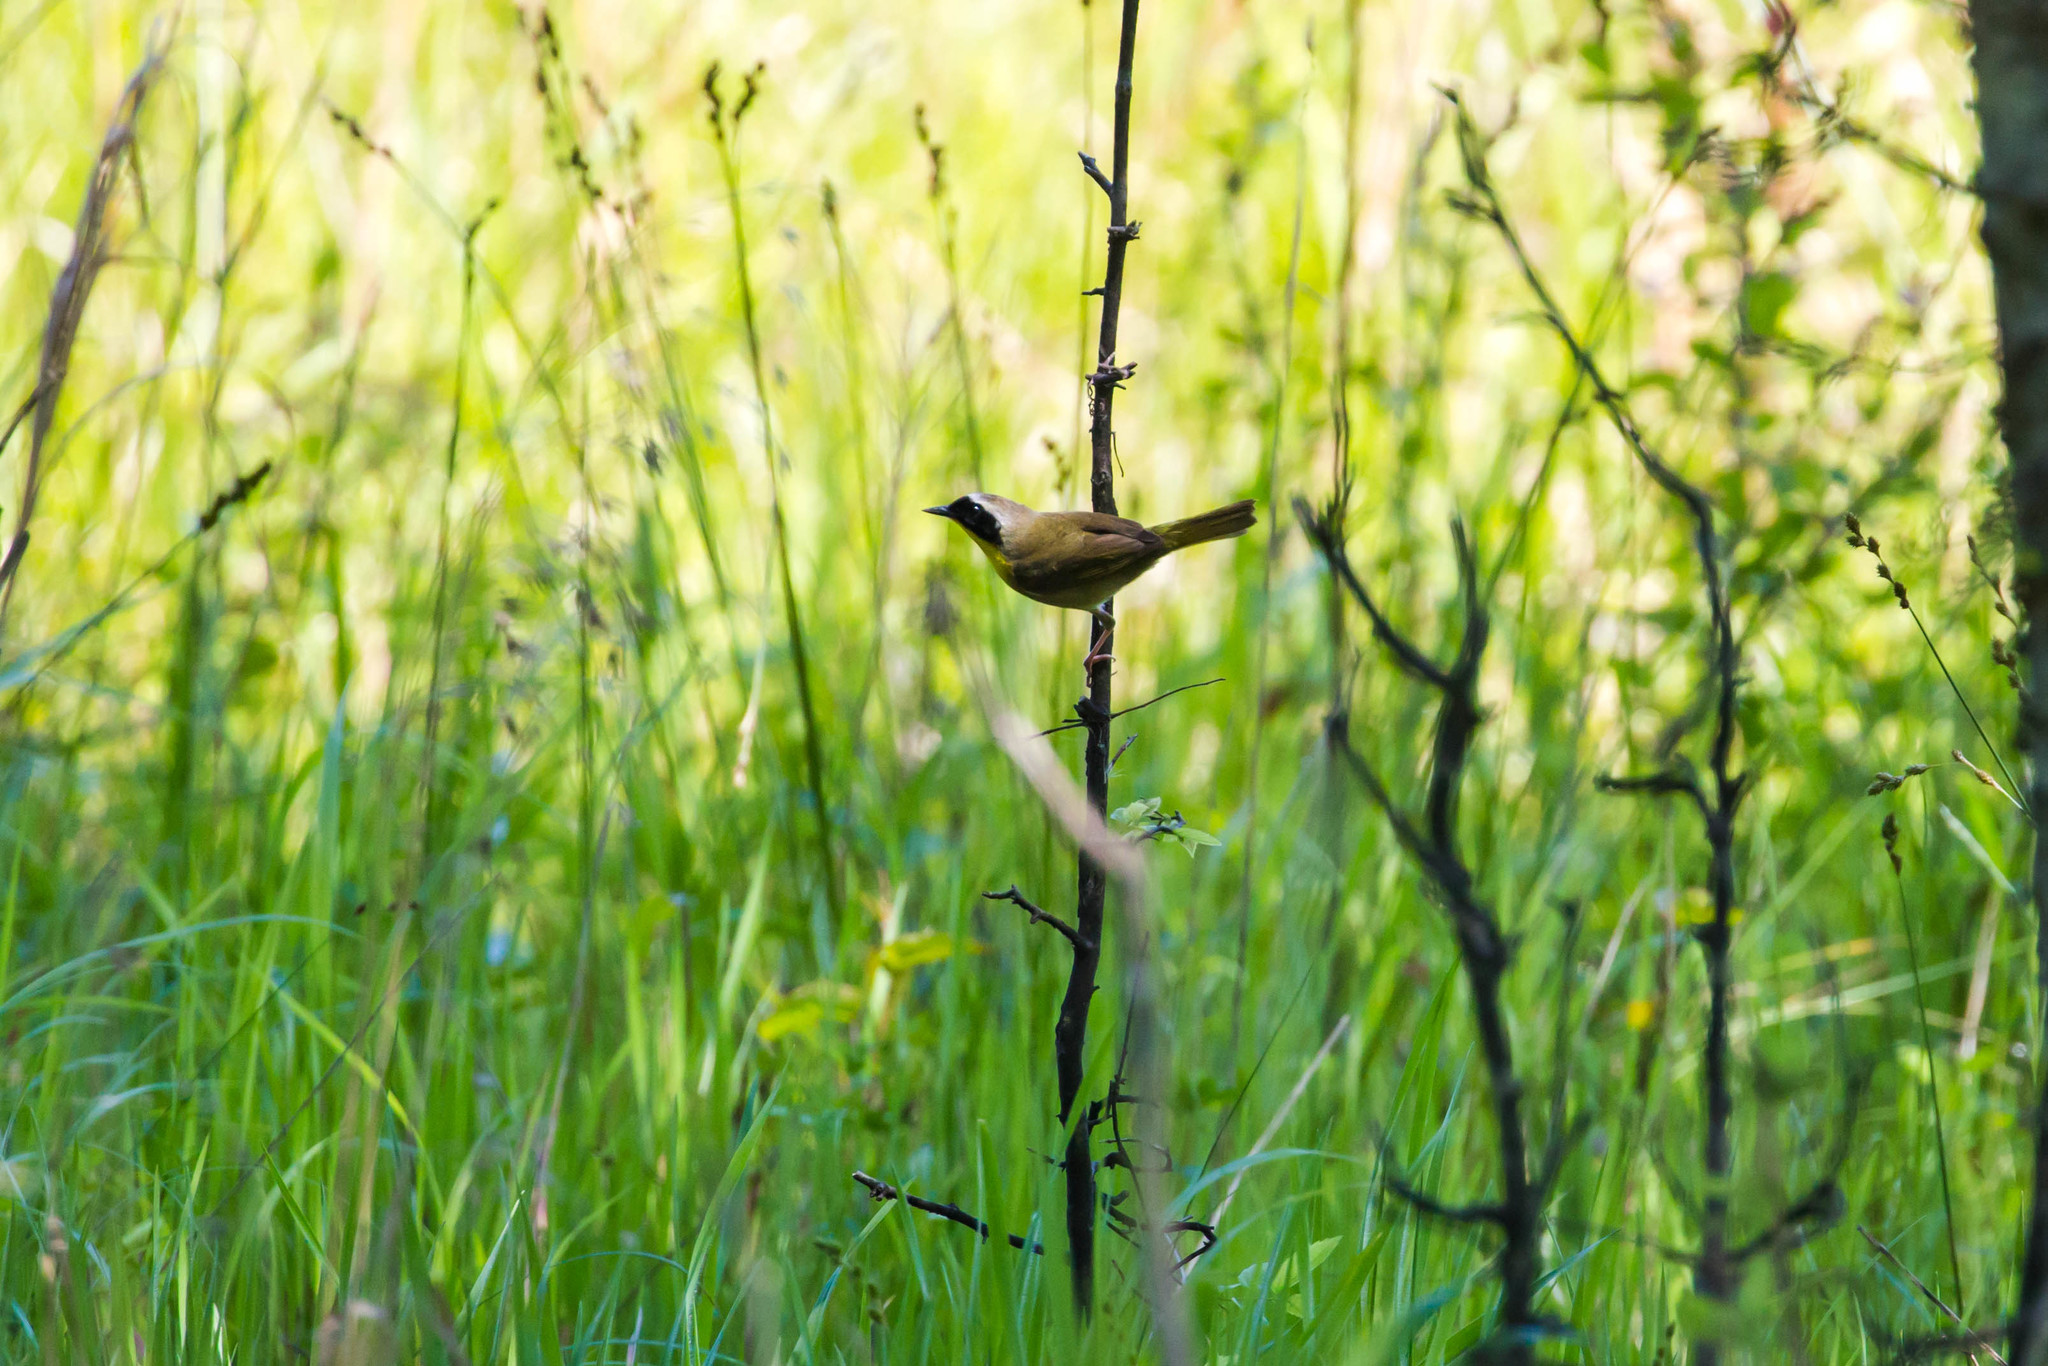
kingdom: Animalia
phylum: Chordata
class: Aves
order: Passeriformes
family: Parulidae
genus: Geothlypis
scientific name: Geothlypis trichas
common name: Common yellowthroat
